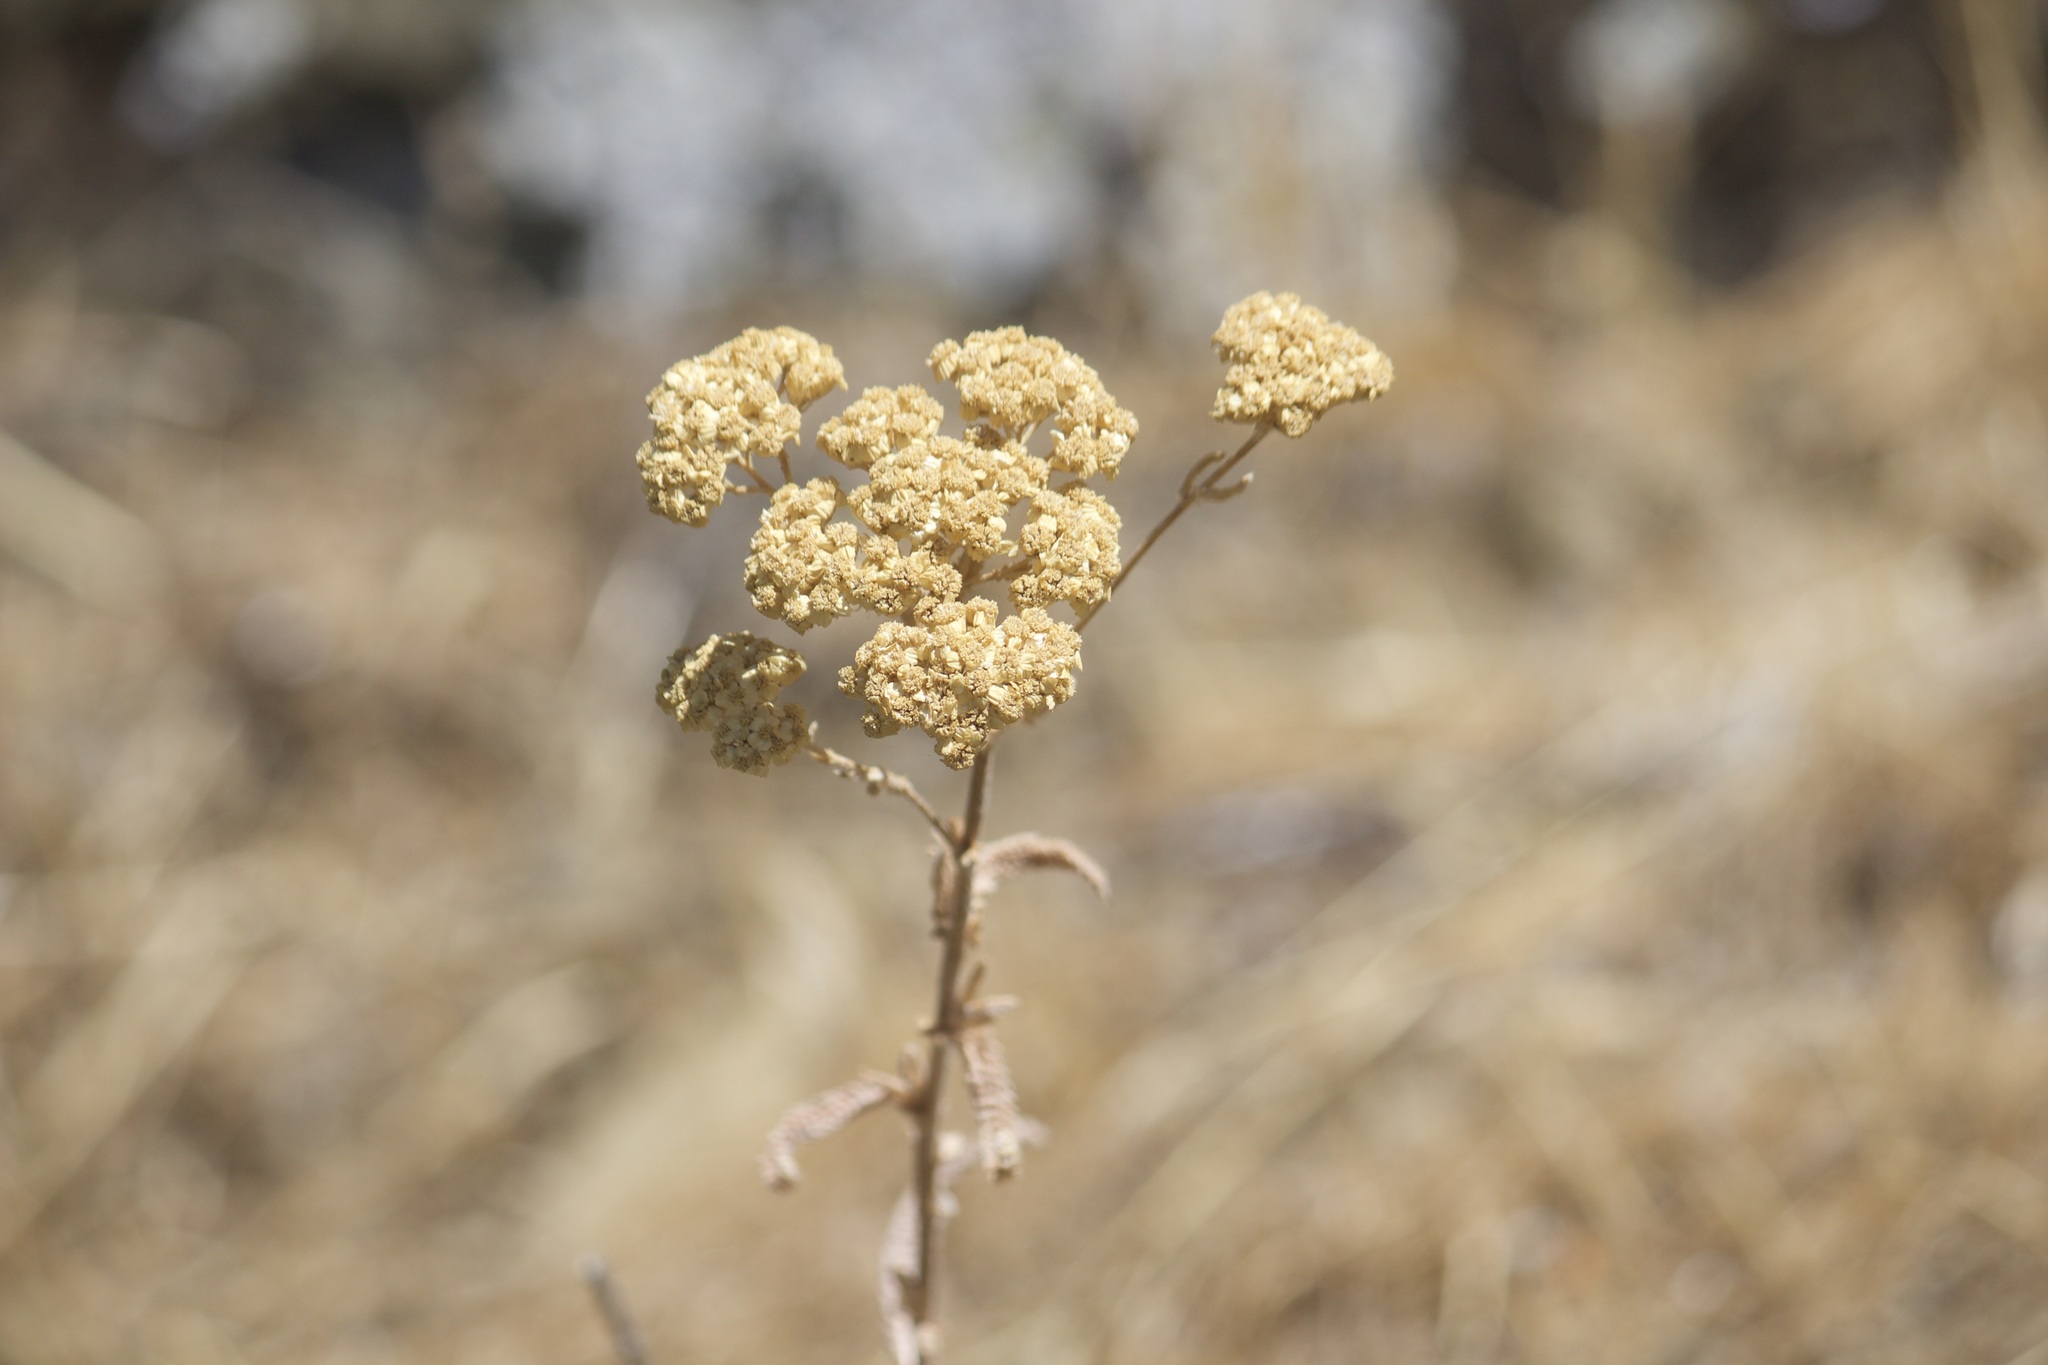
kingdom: Plantae
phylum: Tracheophyta
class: Magnoliopsida
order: Asterales
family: Asteraceae
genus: Achillea
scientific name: Achillea millefolium
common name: Yarrow
